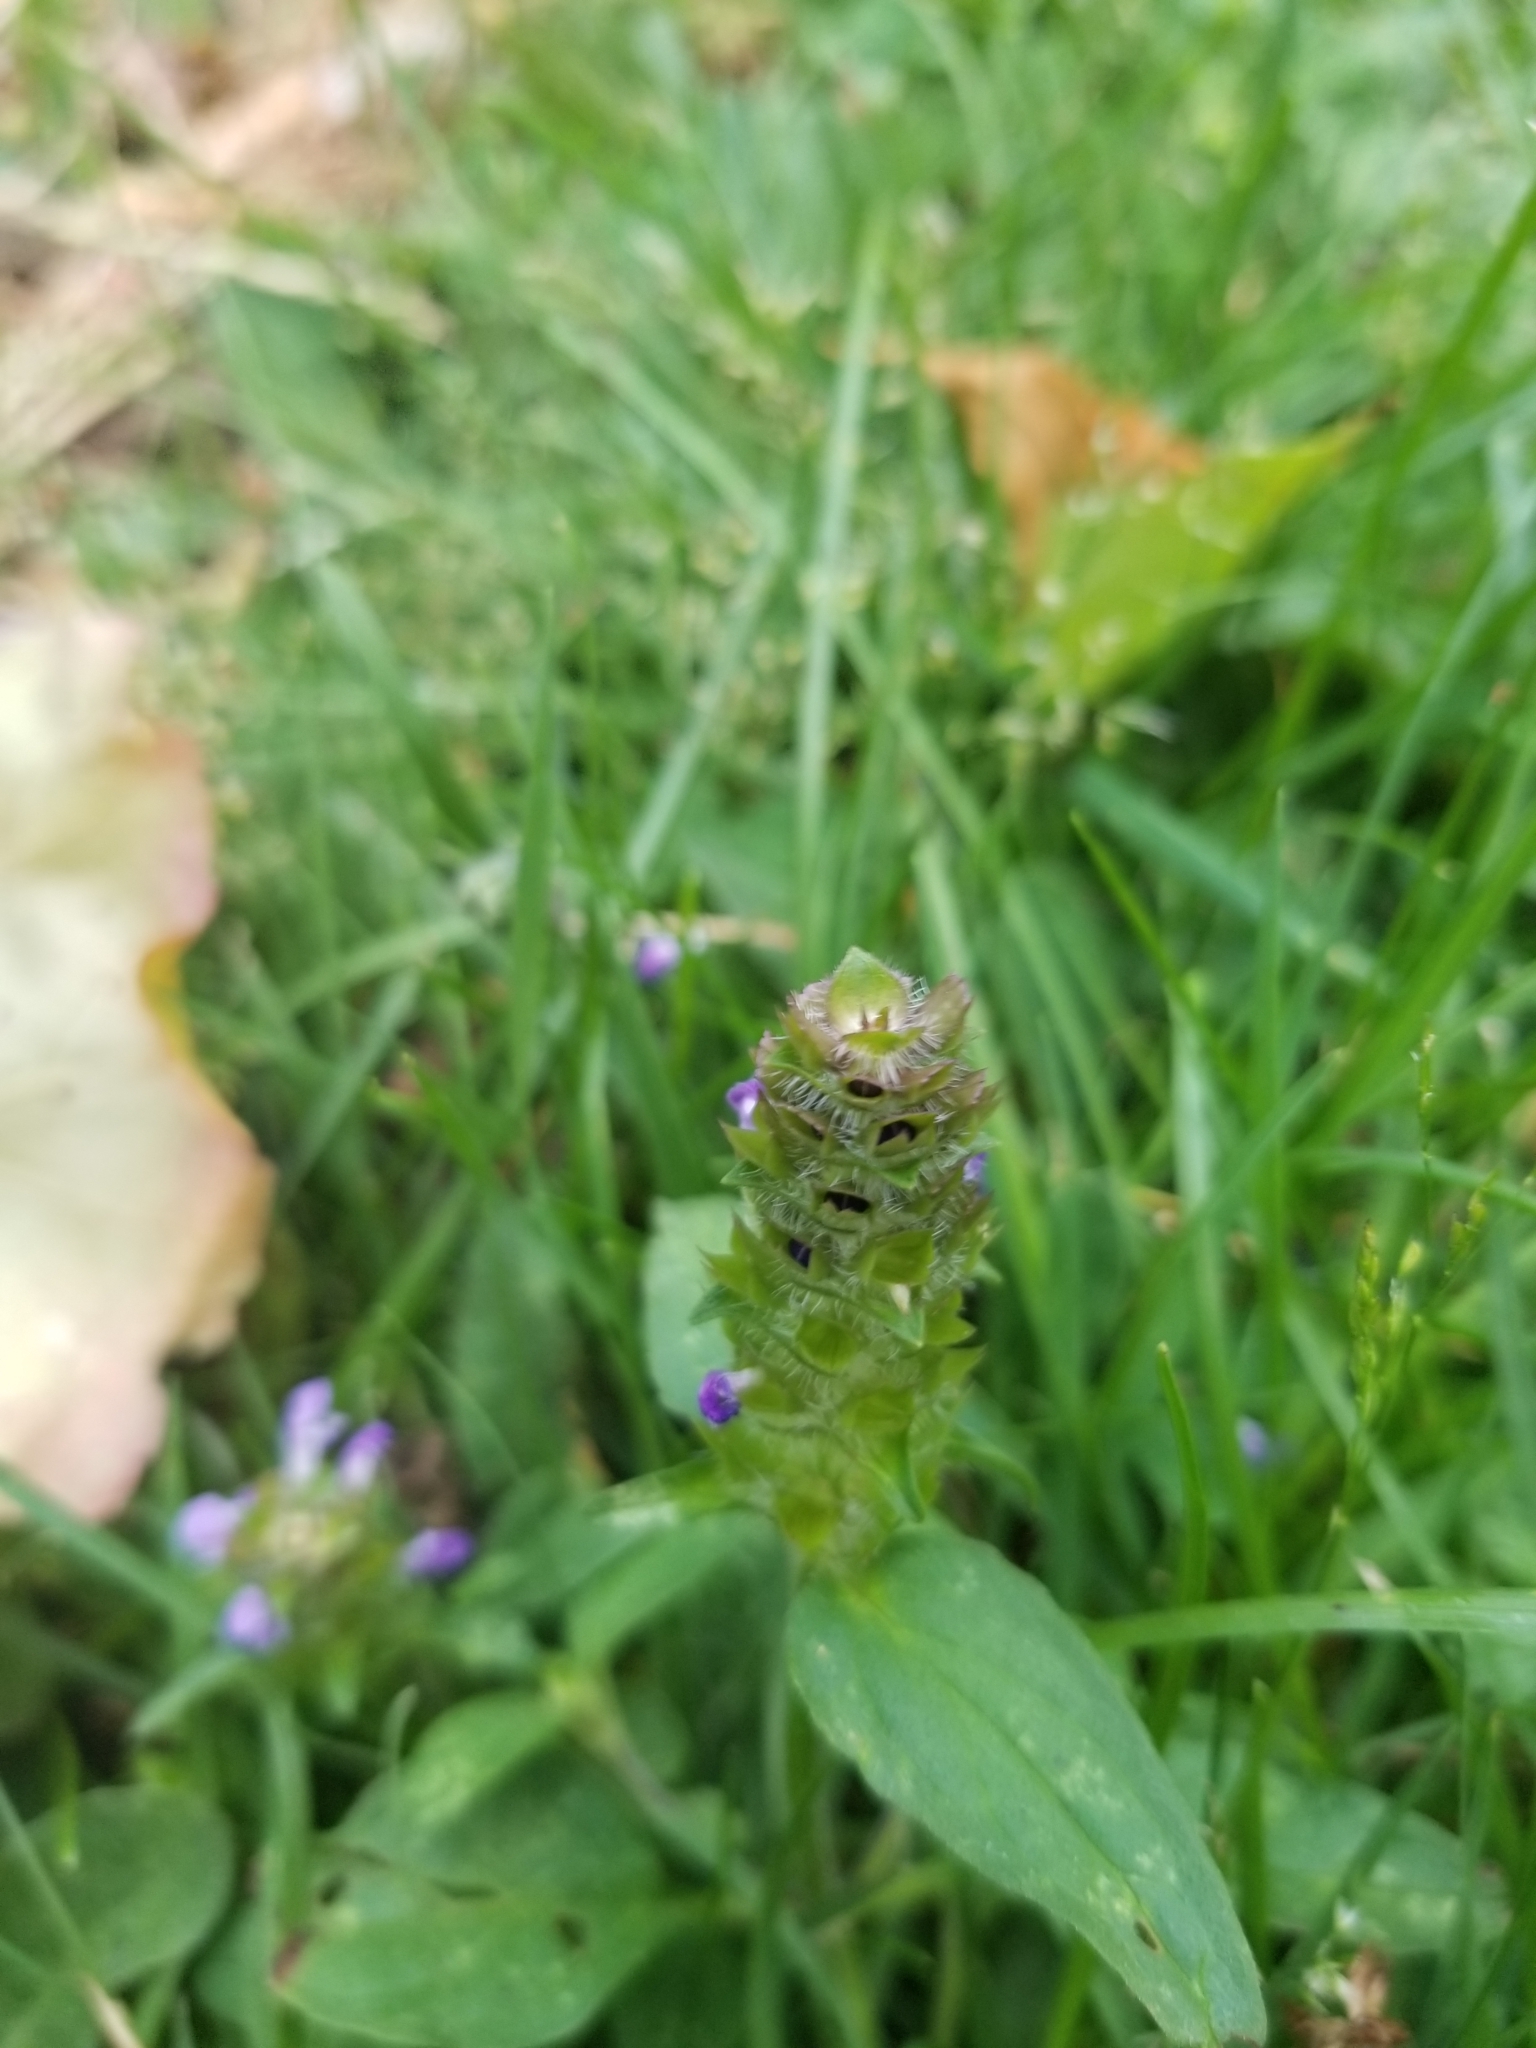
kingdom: Plantae
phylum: Tracheophyta
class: Magnoliopsida
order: Lamiales
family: Lamiaceae
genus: Prunella
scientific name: Prunella vulgaris
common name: Heal-all
